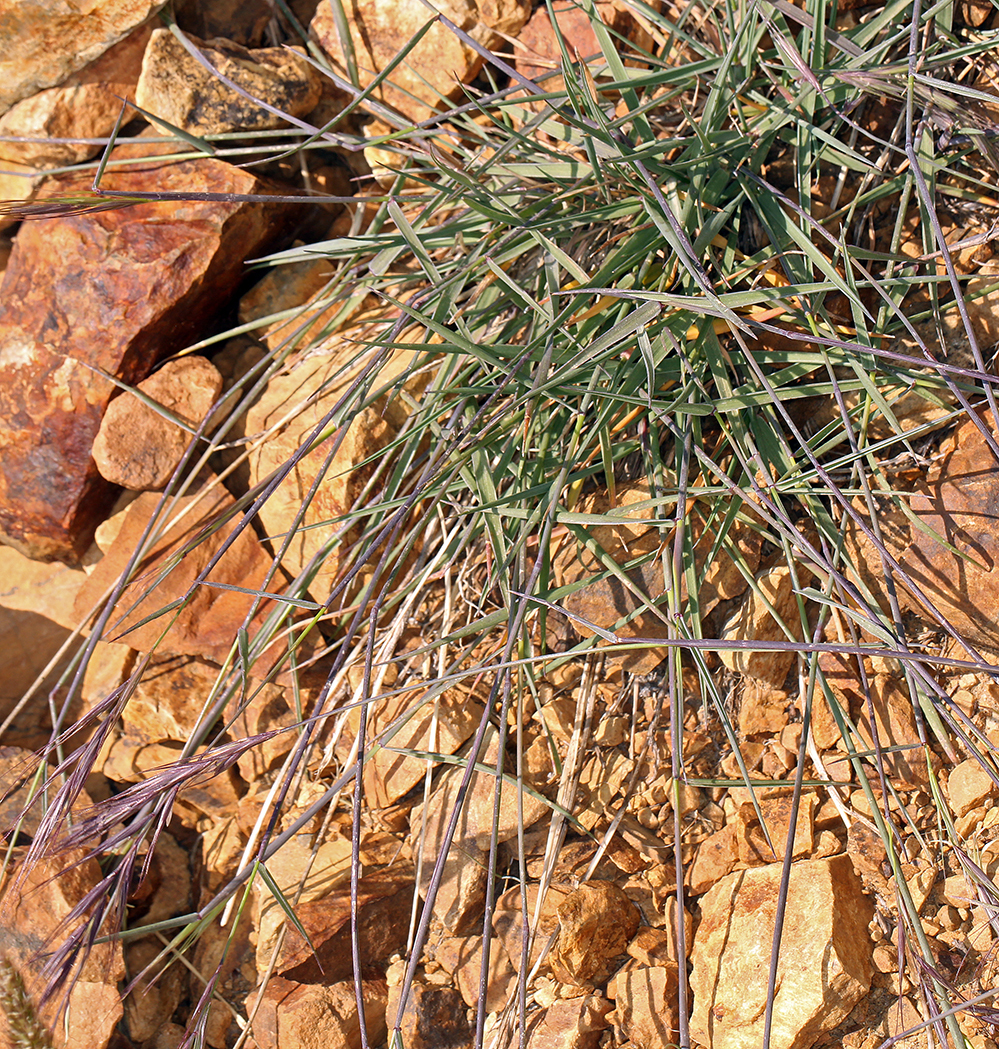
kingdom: Plantae
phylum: Tracheophyta
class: Liliopsida
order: Poales
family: Poaceae
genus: Elymus
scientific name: Elymus violaceus
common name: Arctic wheatgrass
